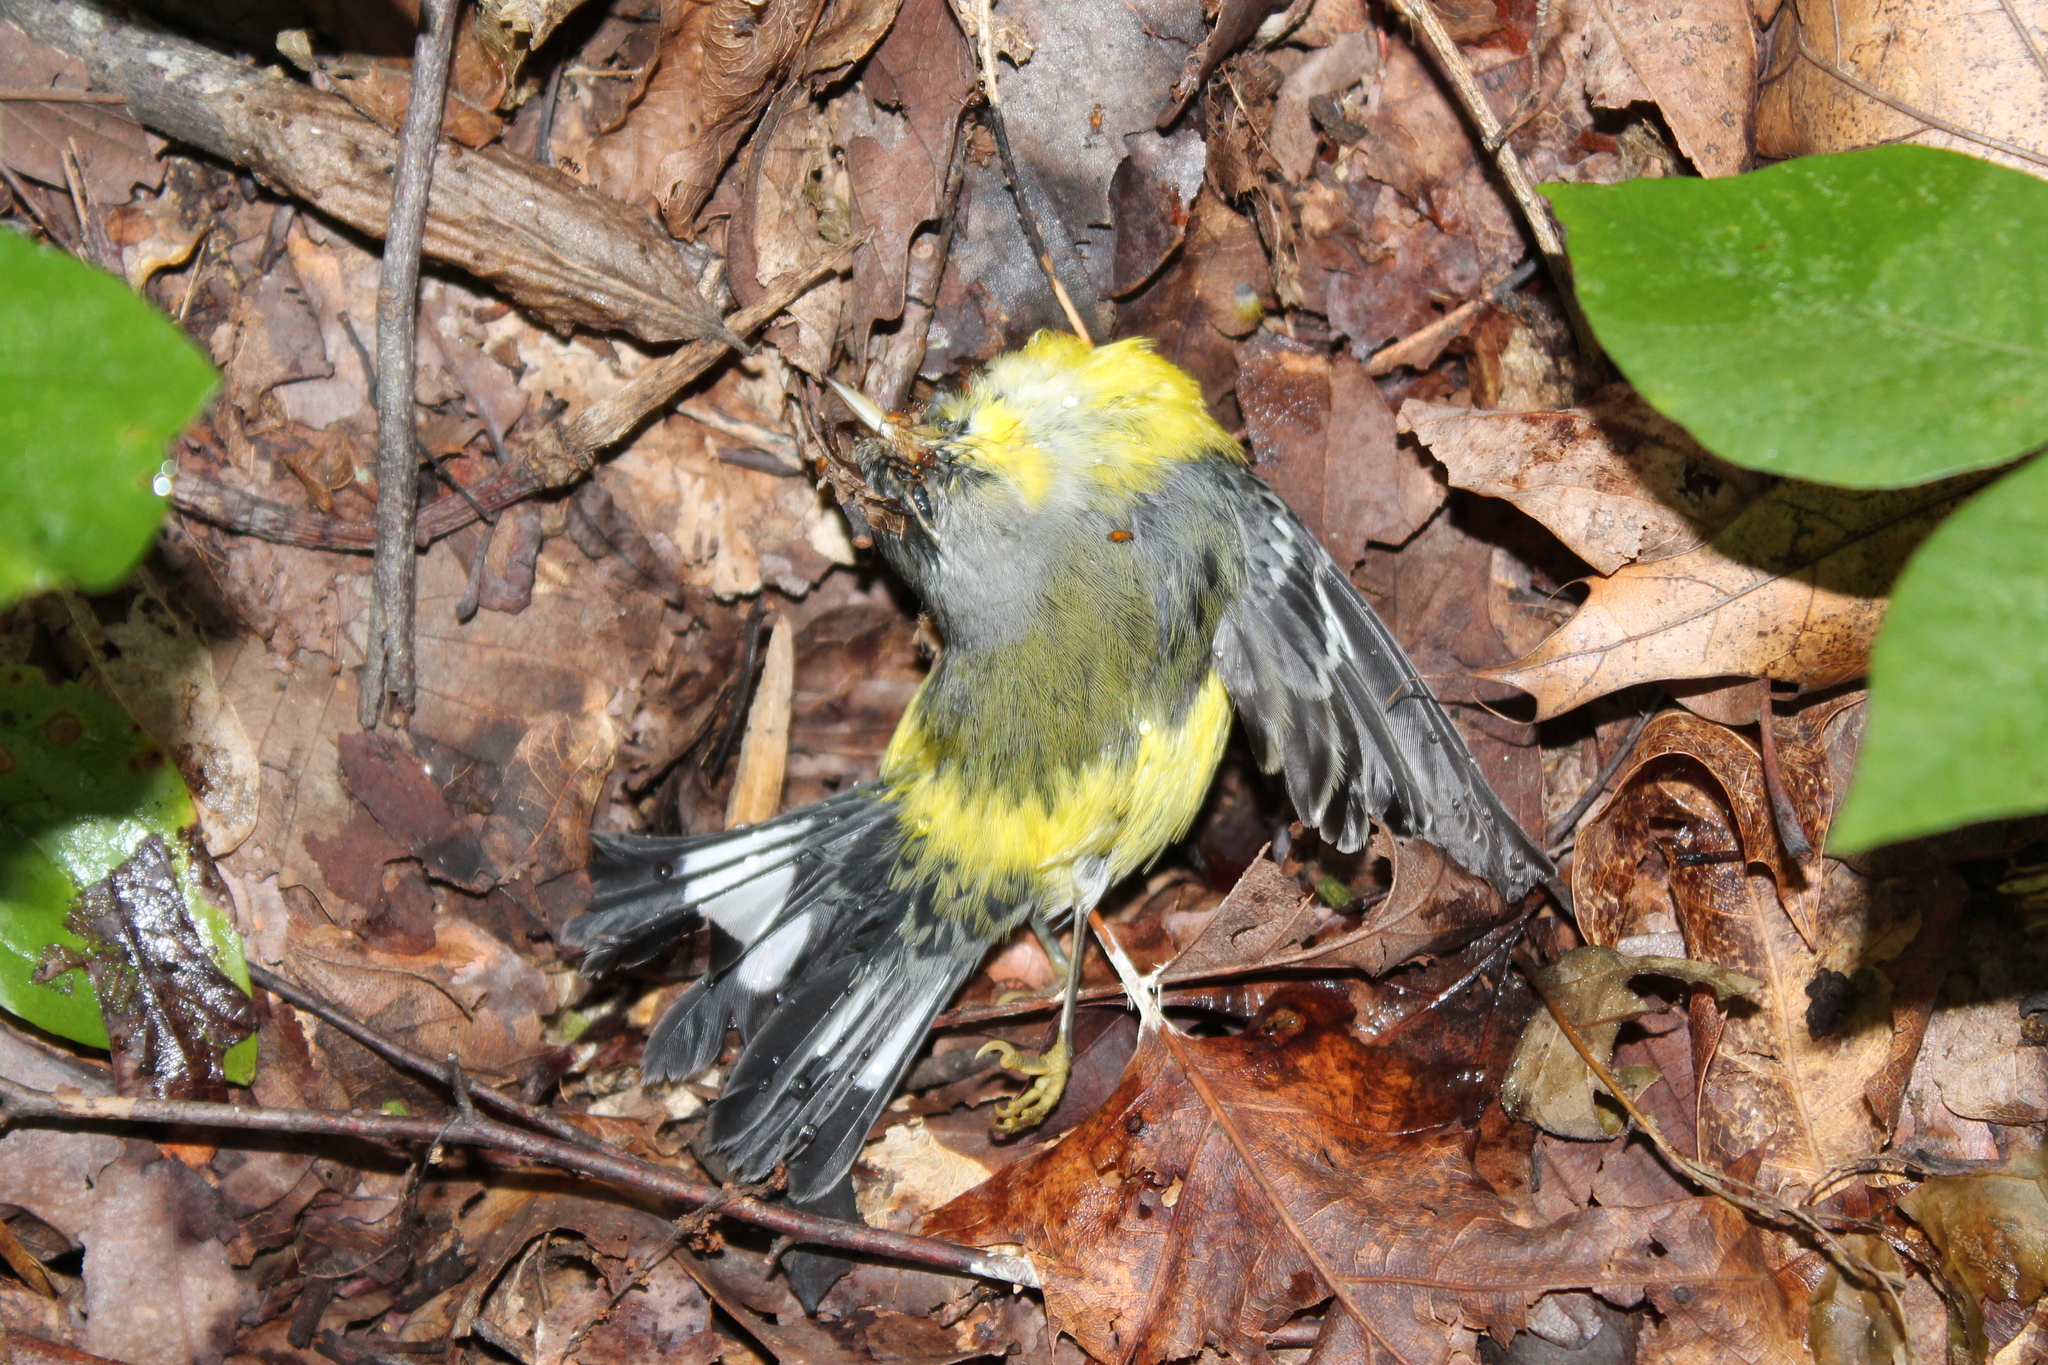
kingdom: Animalia
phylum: Chordata
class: Aves
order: Passeriformes
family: Parulidae
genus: Setophaga
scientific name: Setophaga magnolia
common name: Magnolia warbler
